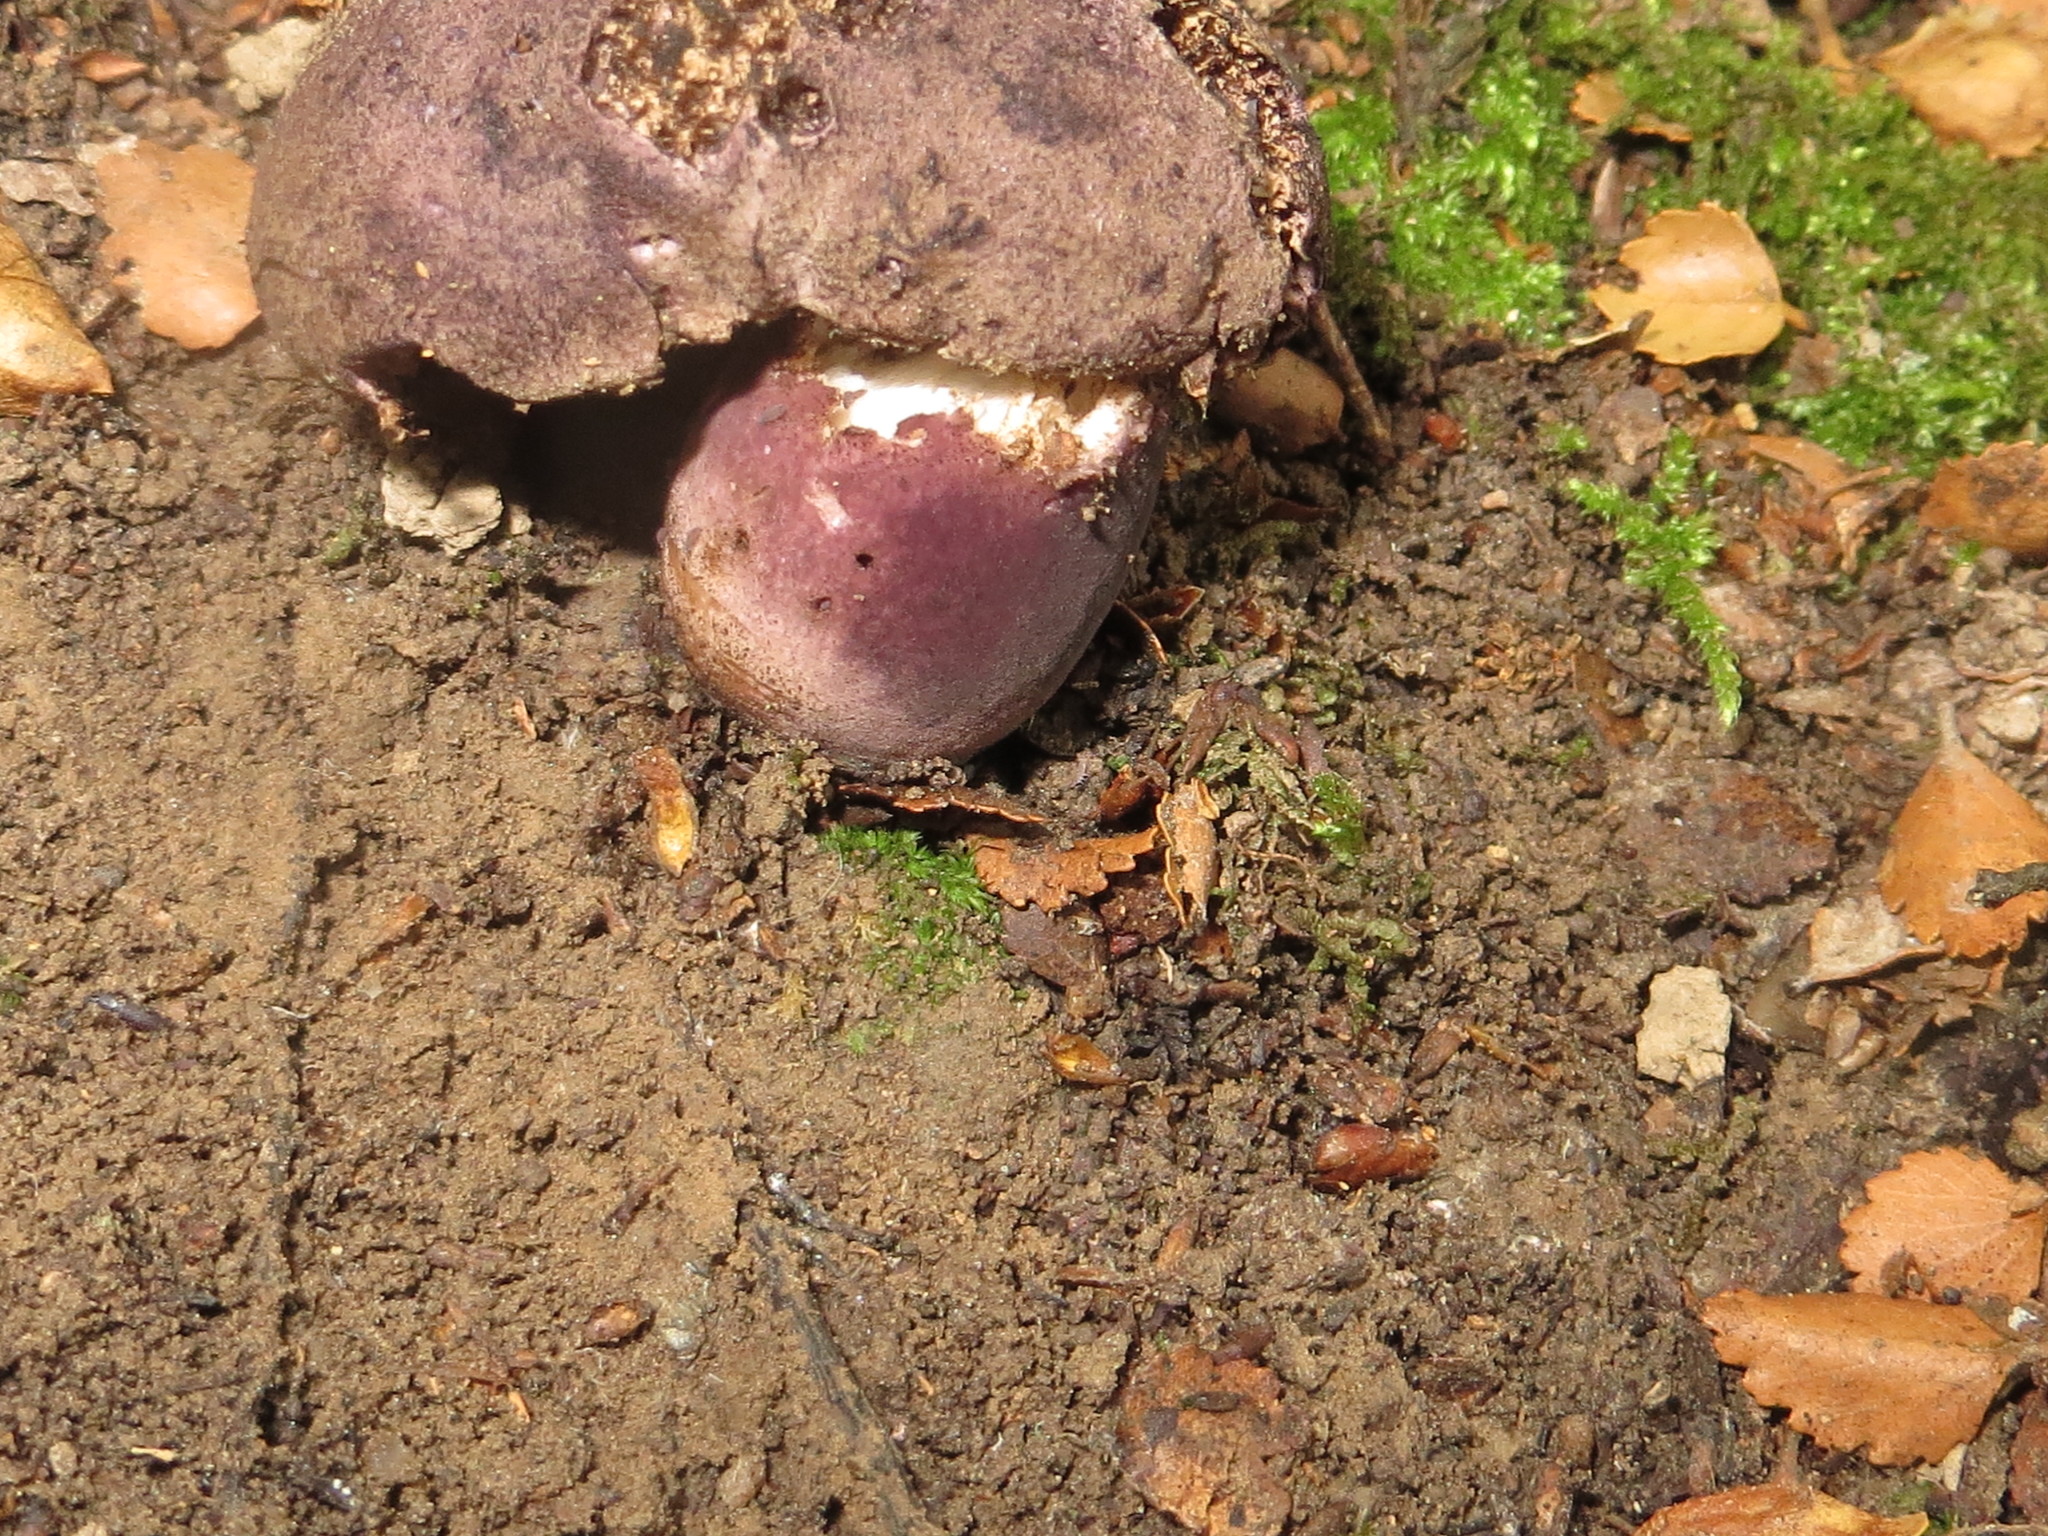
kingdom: Fungi
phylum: Basidiomycota
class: Agaricomycetes
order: Boletales
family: Boletaceae
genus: Porphyrellus
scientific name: Porphyrellus formosus
